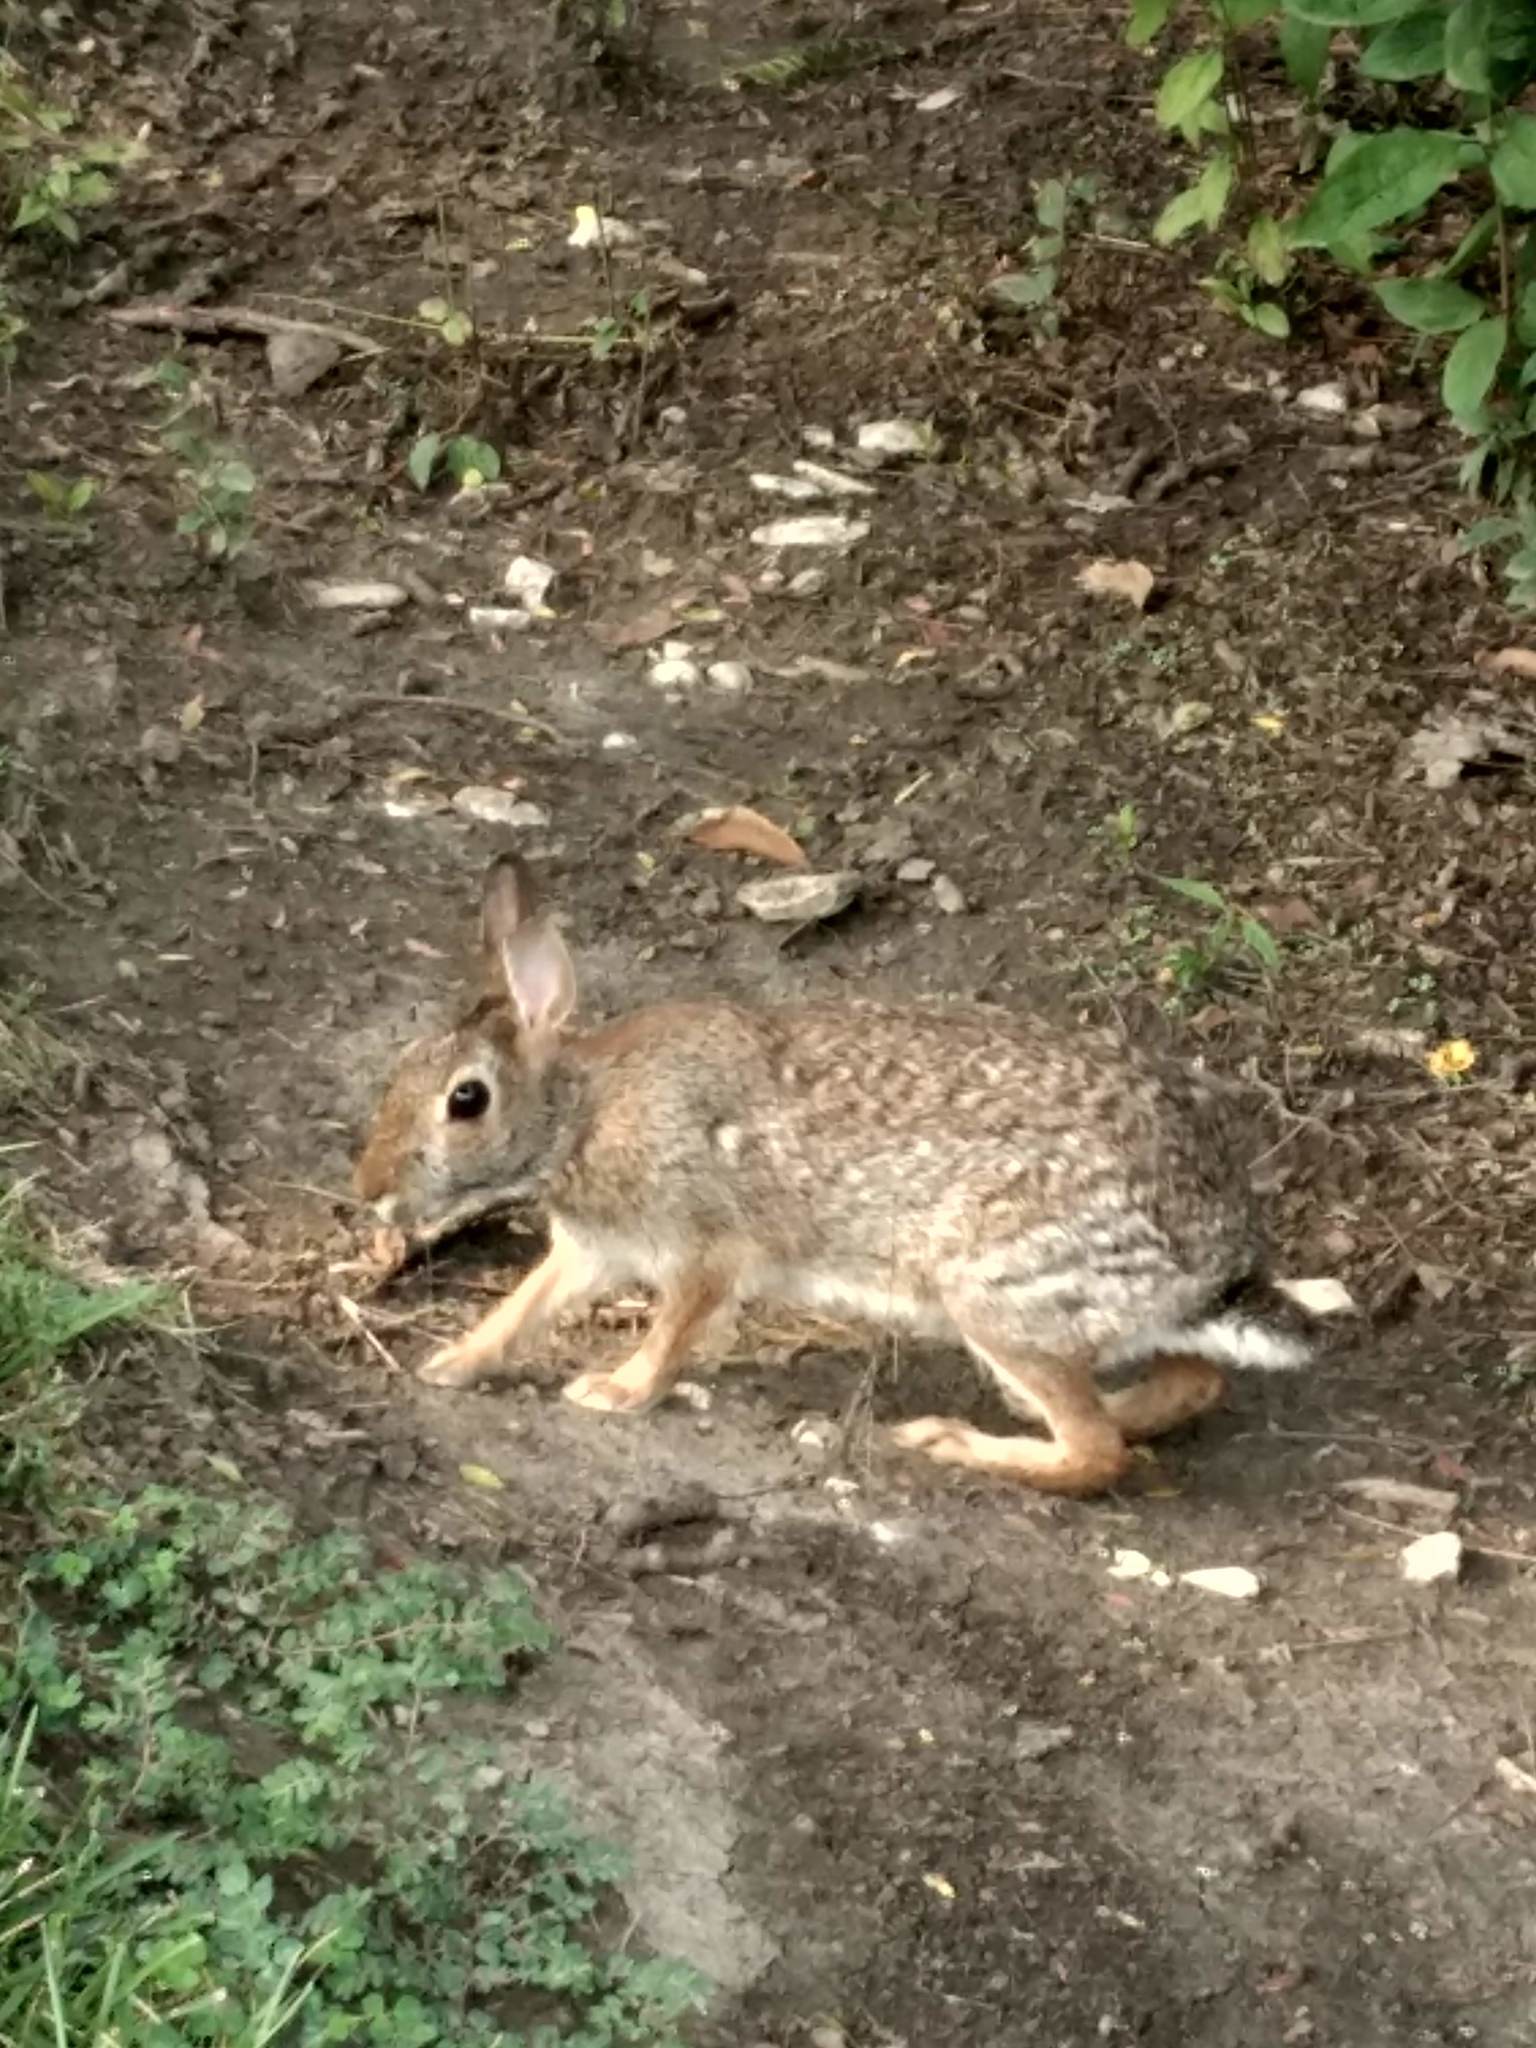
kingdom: Animalia
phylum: Chordata
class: Mammalia
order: Lagomorpha
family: Leporidae
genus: Sylvilagus
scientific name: Sylvilagus floridanus
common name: Eastern cottontail
